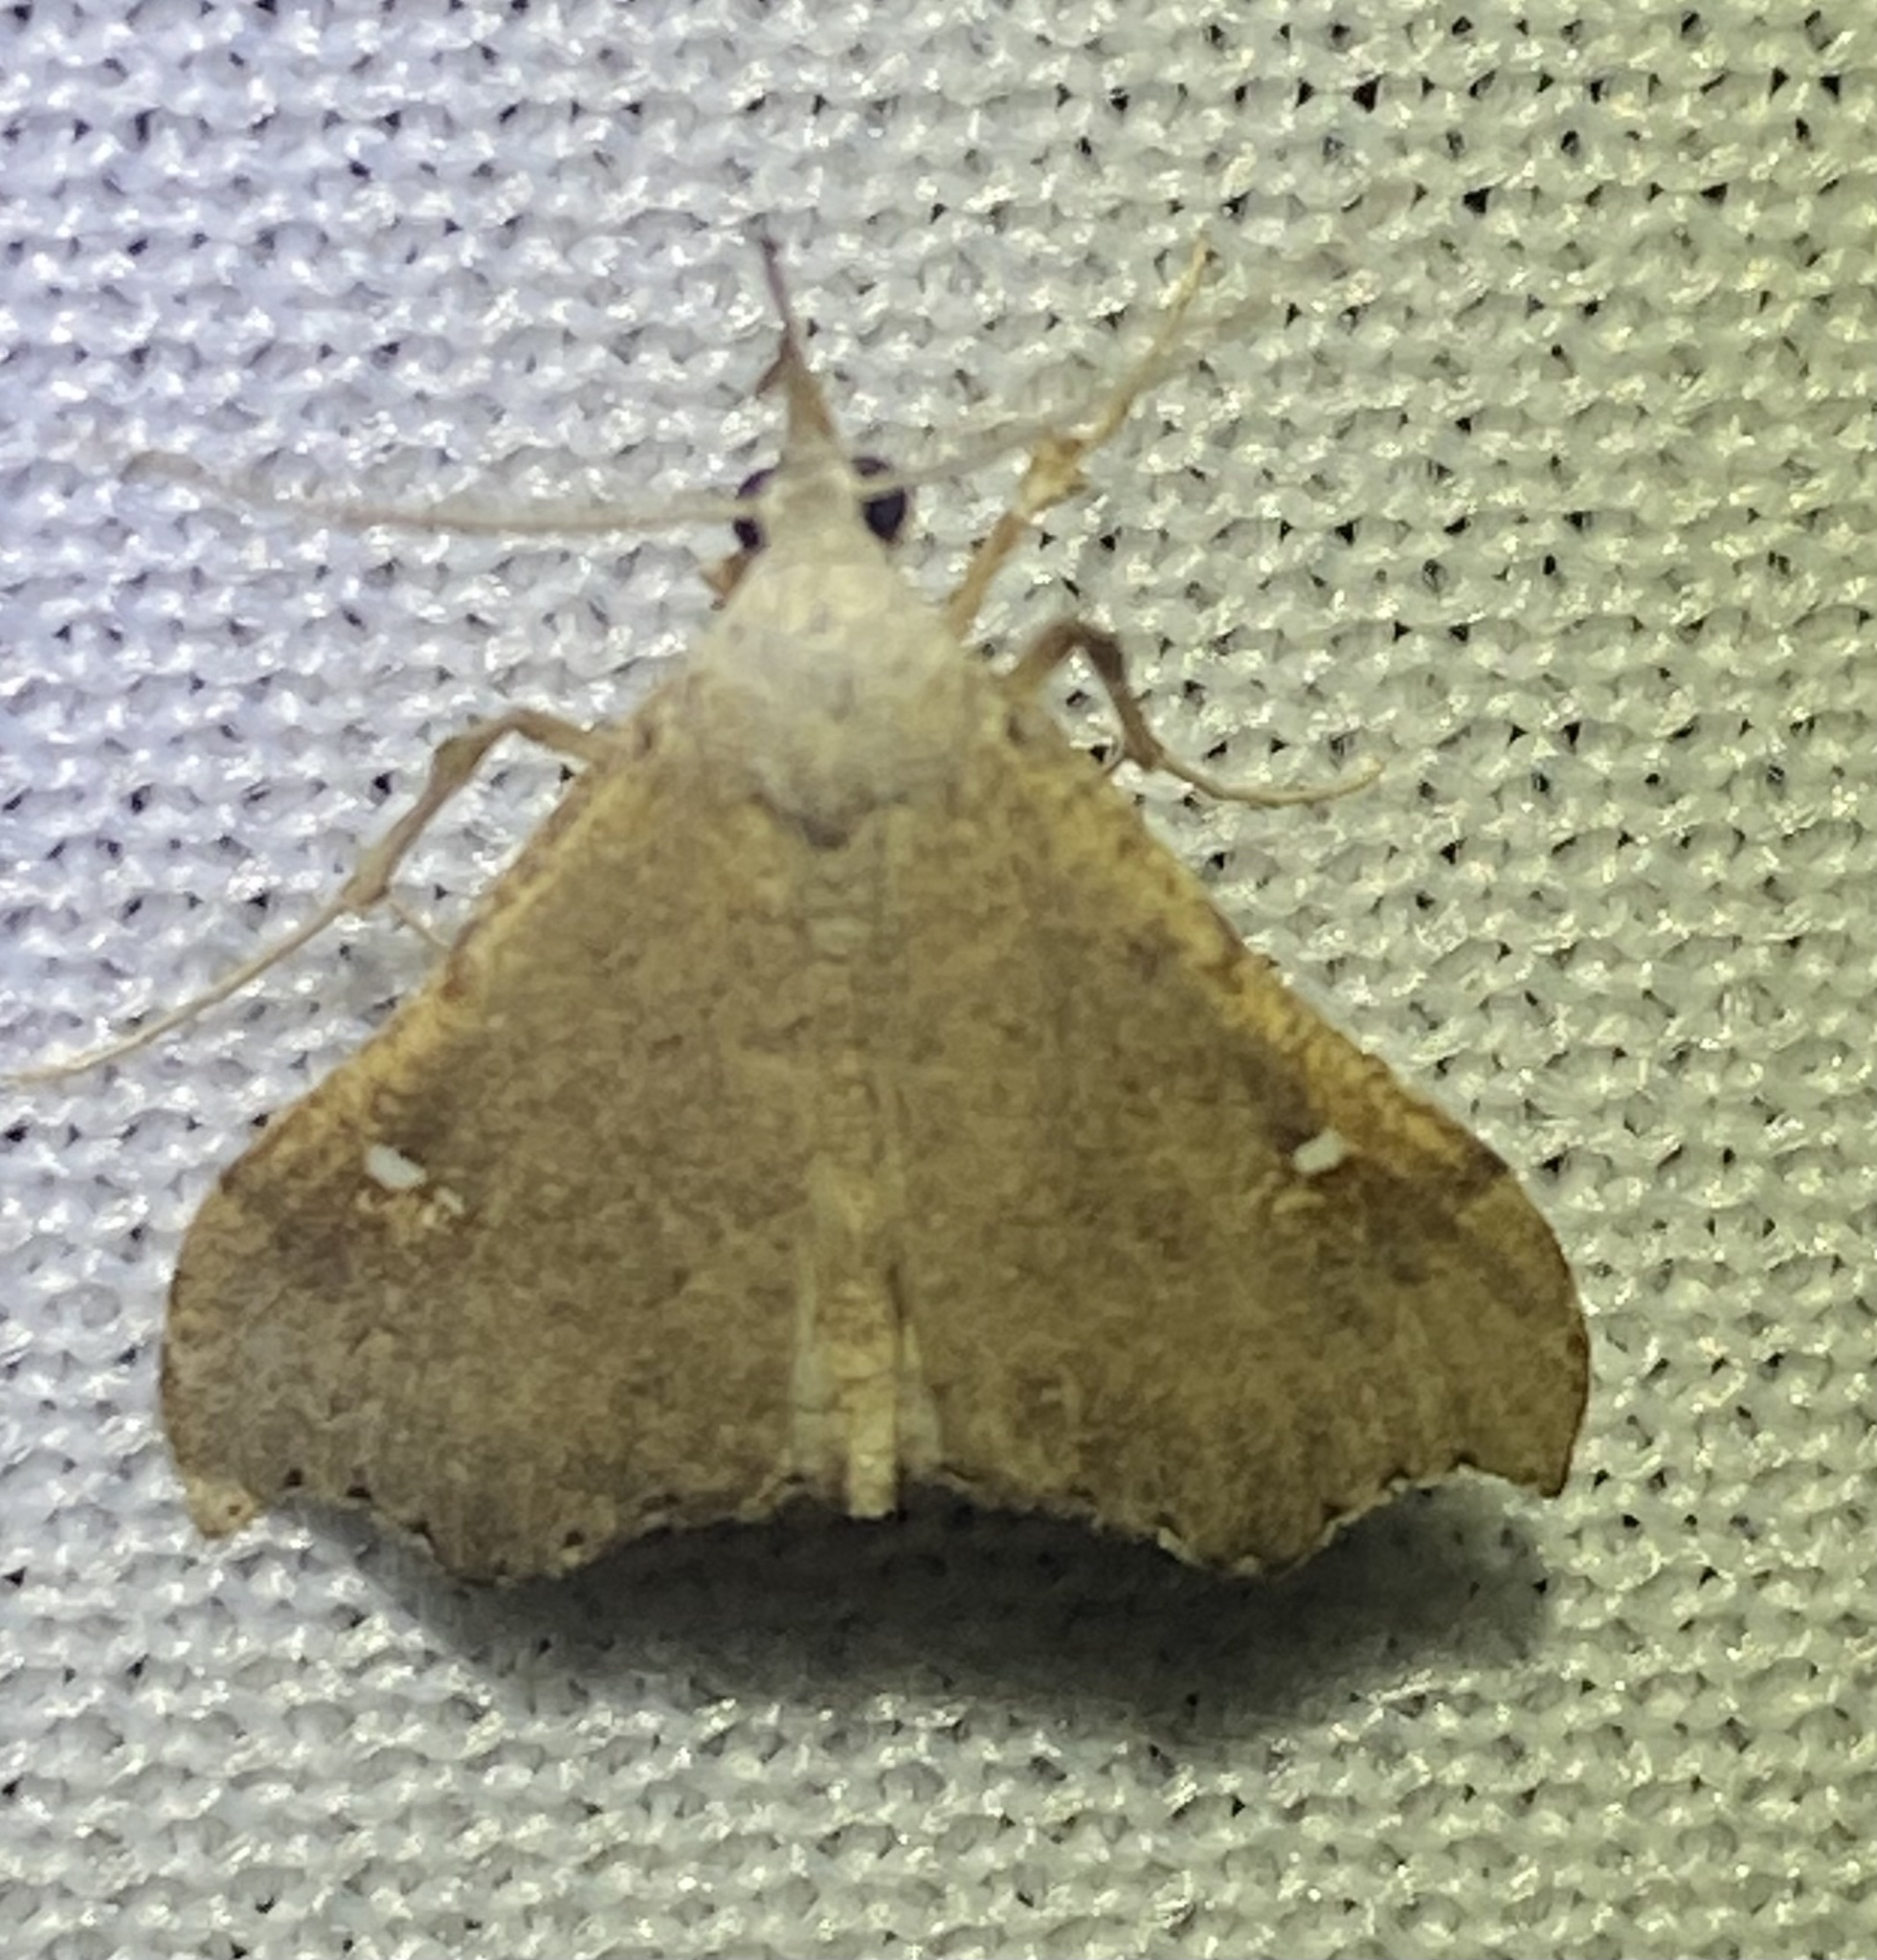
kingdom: Animalia
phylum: Arthropoda
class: Insecta
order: Lepidoptera
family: Erebidae
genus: Redectis
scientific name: Redectis vitrea
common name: White-spotted redectis
